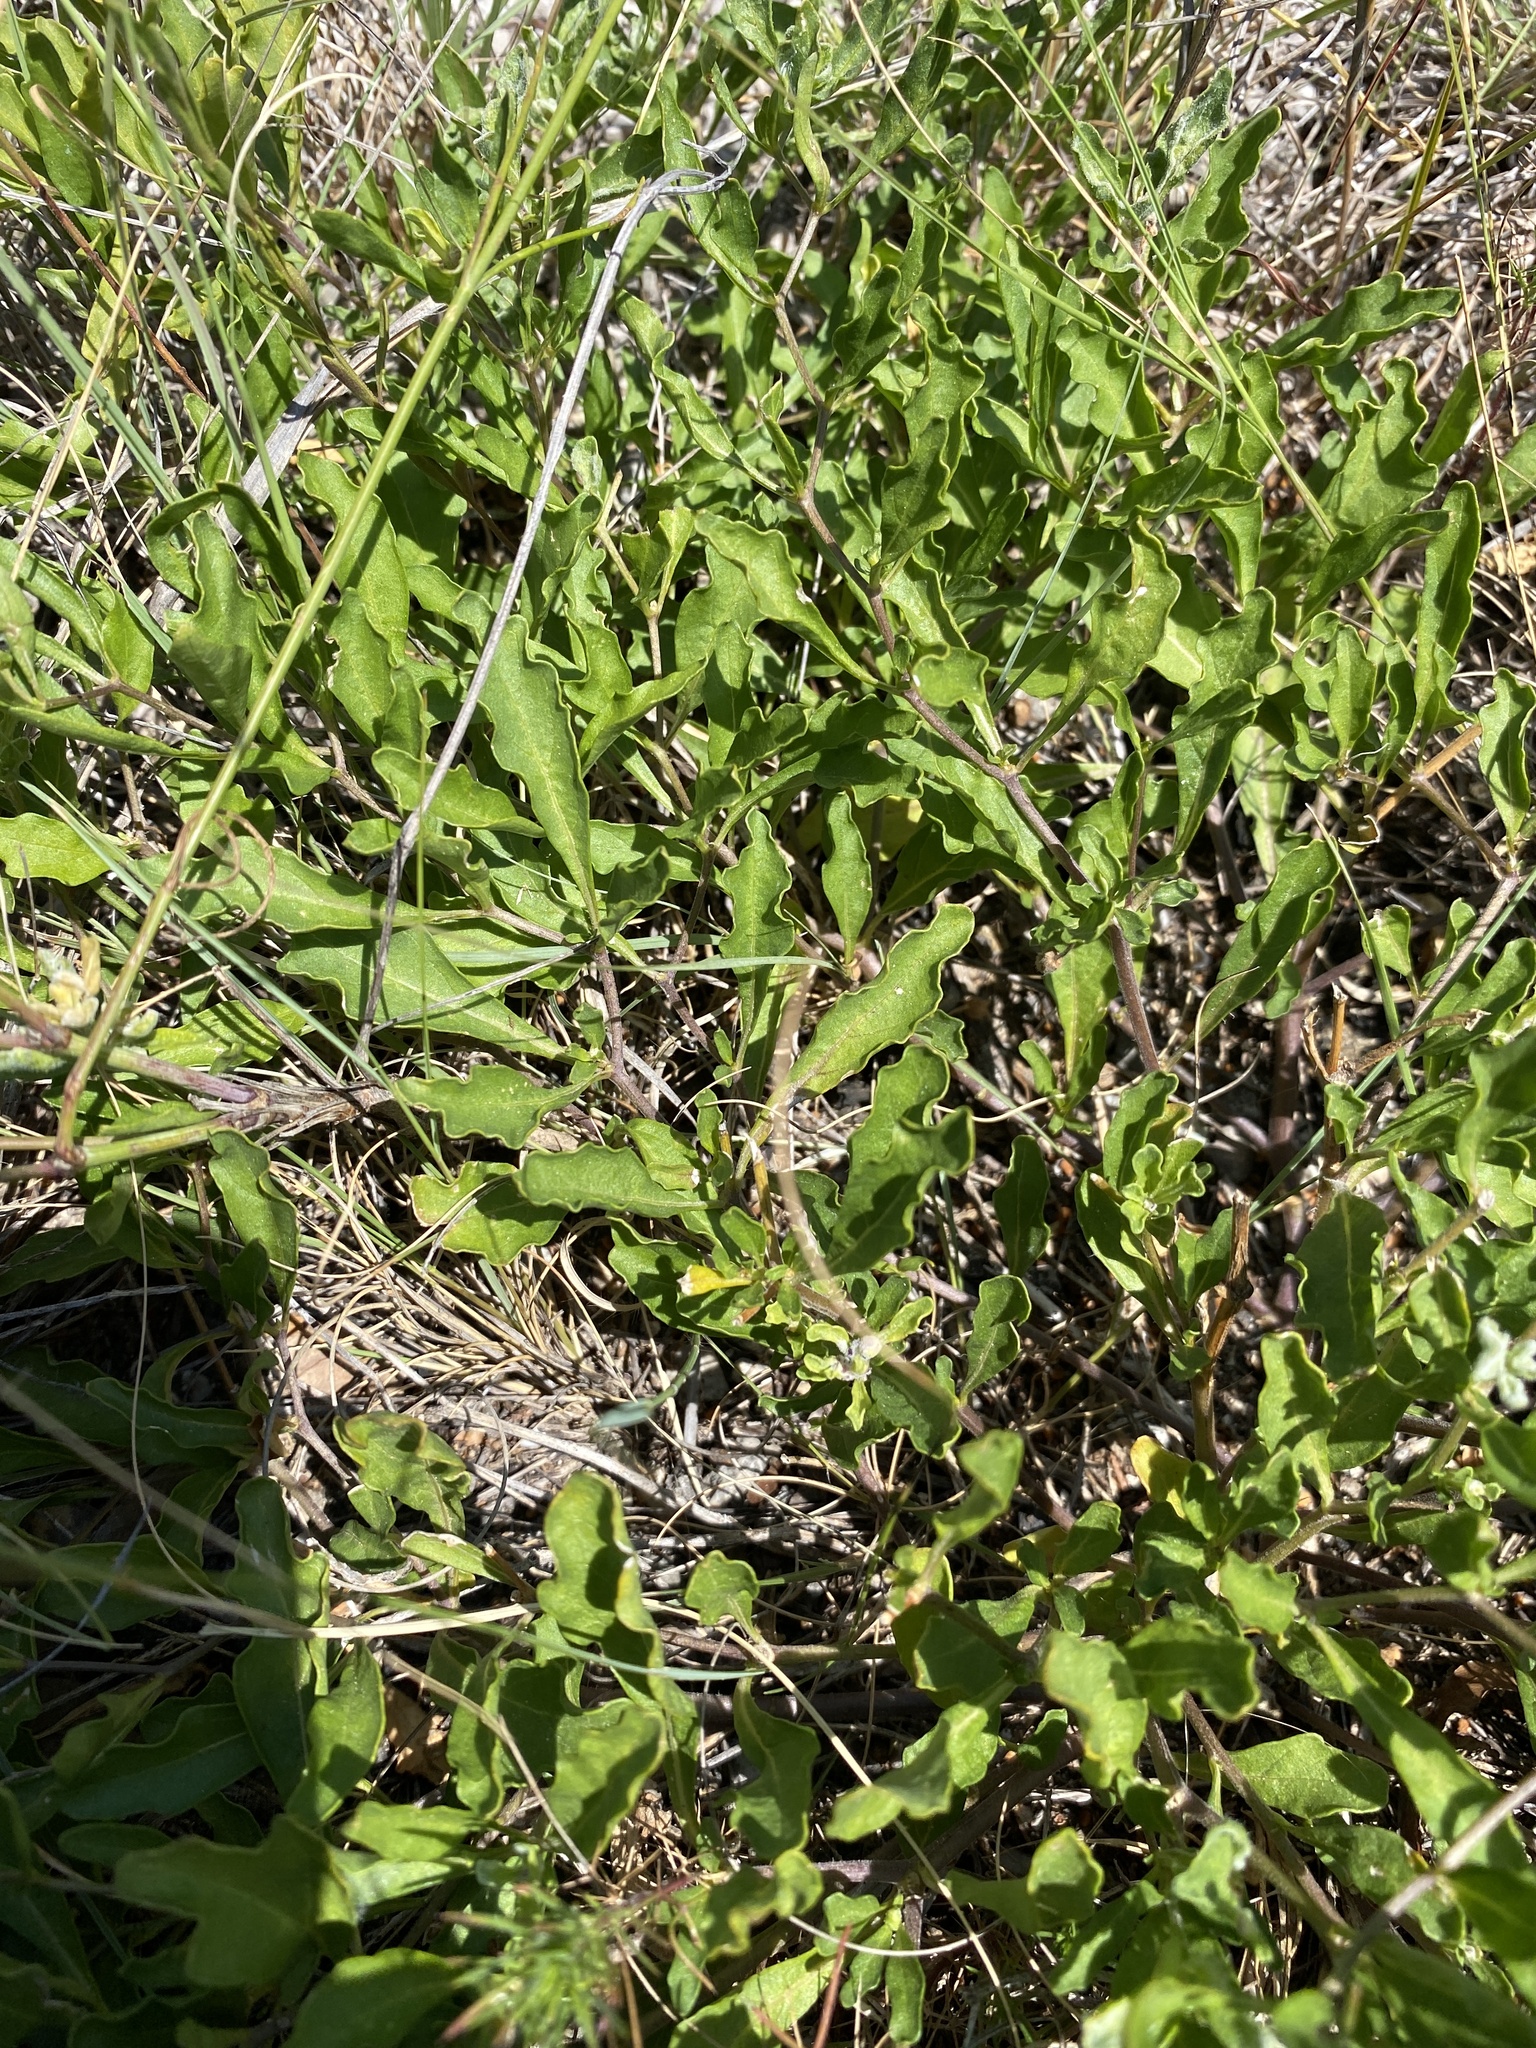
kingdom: Plantae
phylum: Tracheophyta
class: Magnoliopsida
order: Solanales
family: Solanaceae
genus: Chamaesaracha
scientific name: Chamaesaracha edwardsiana
